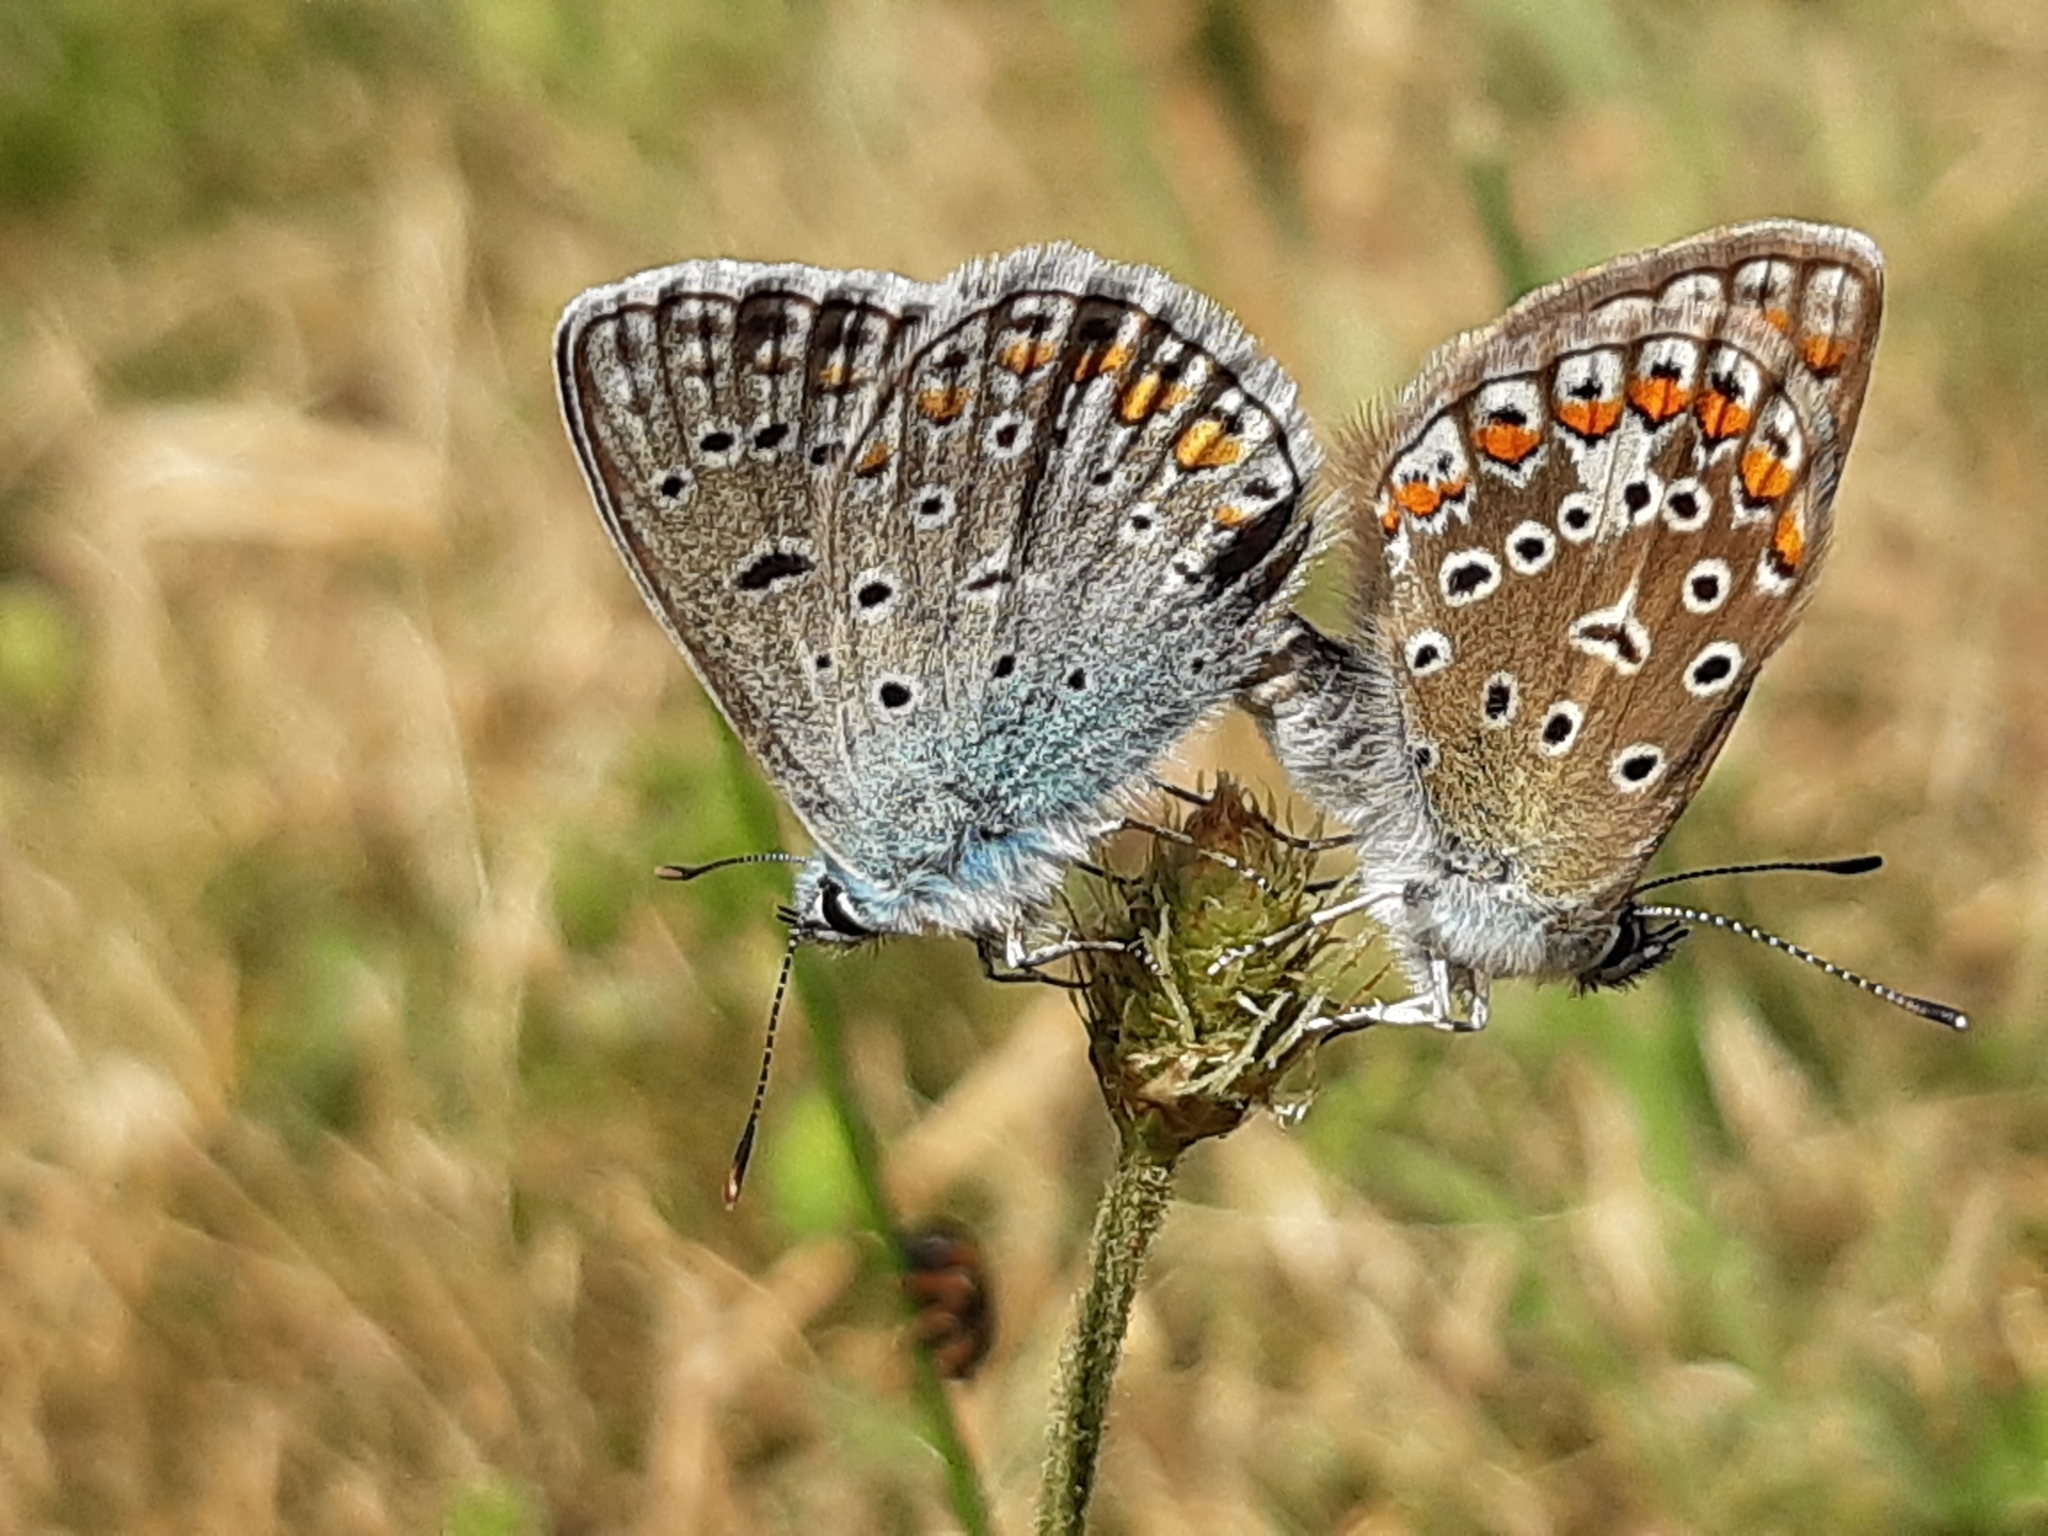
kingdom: Animalia
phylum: Arthropoda
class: Insecta
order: Lepidoptera
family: Lycaenidae
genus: Polyommatus
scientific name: Polyommatus icarus
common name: Common blue
